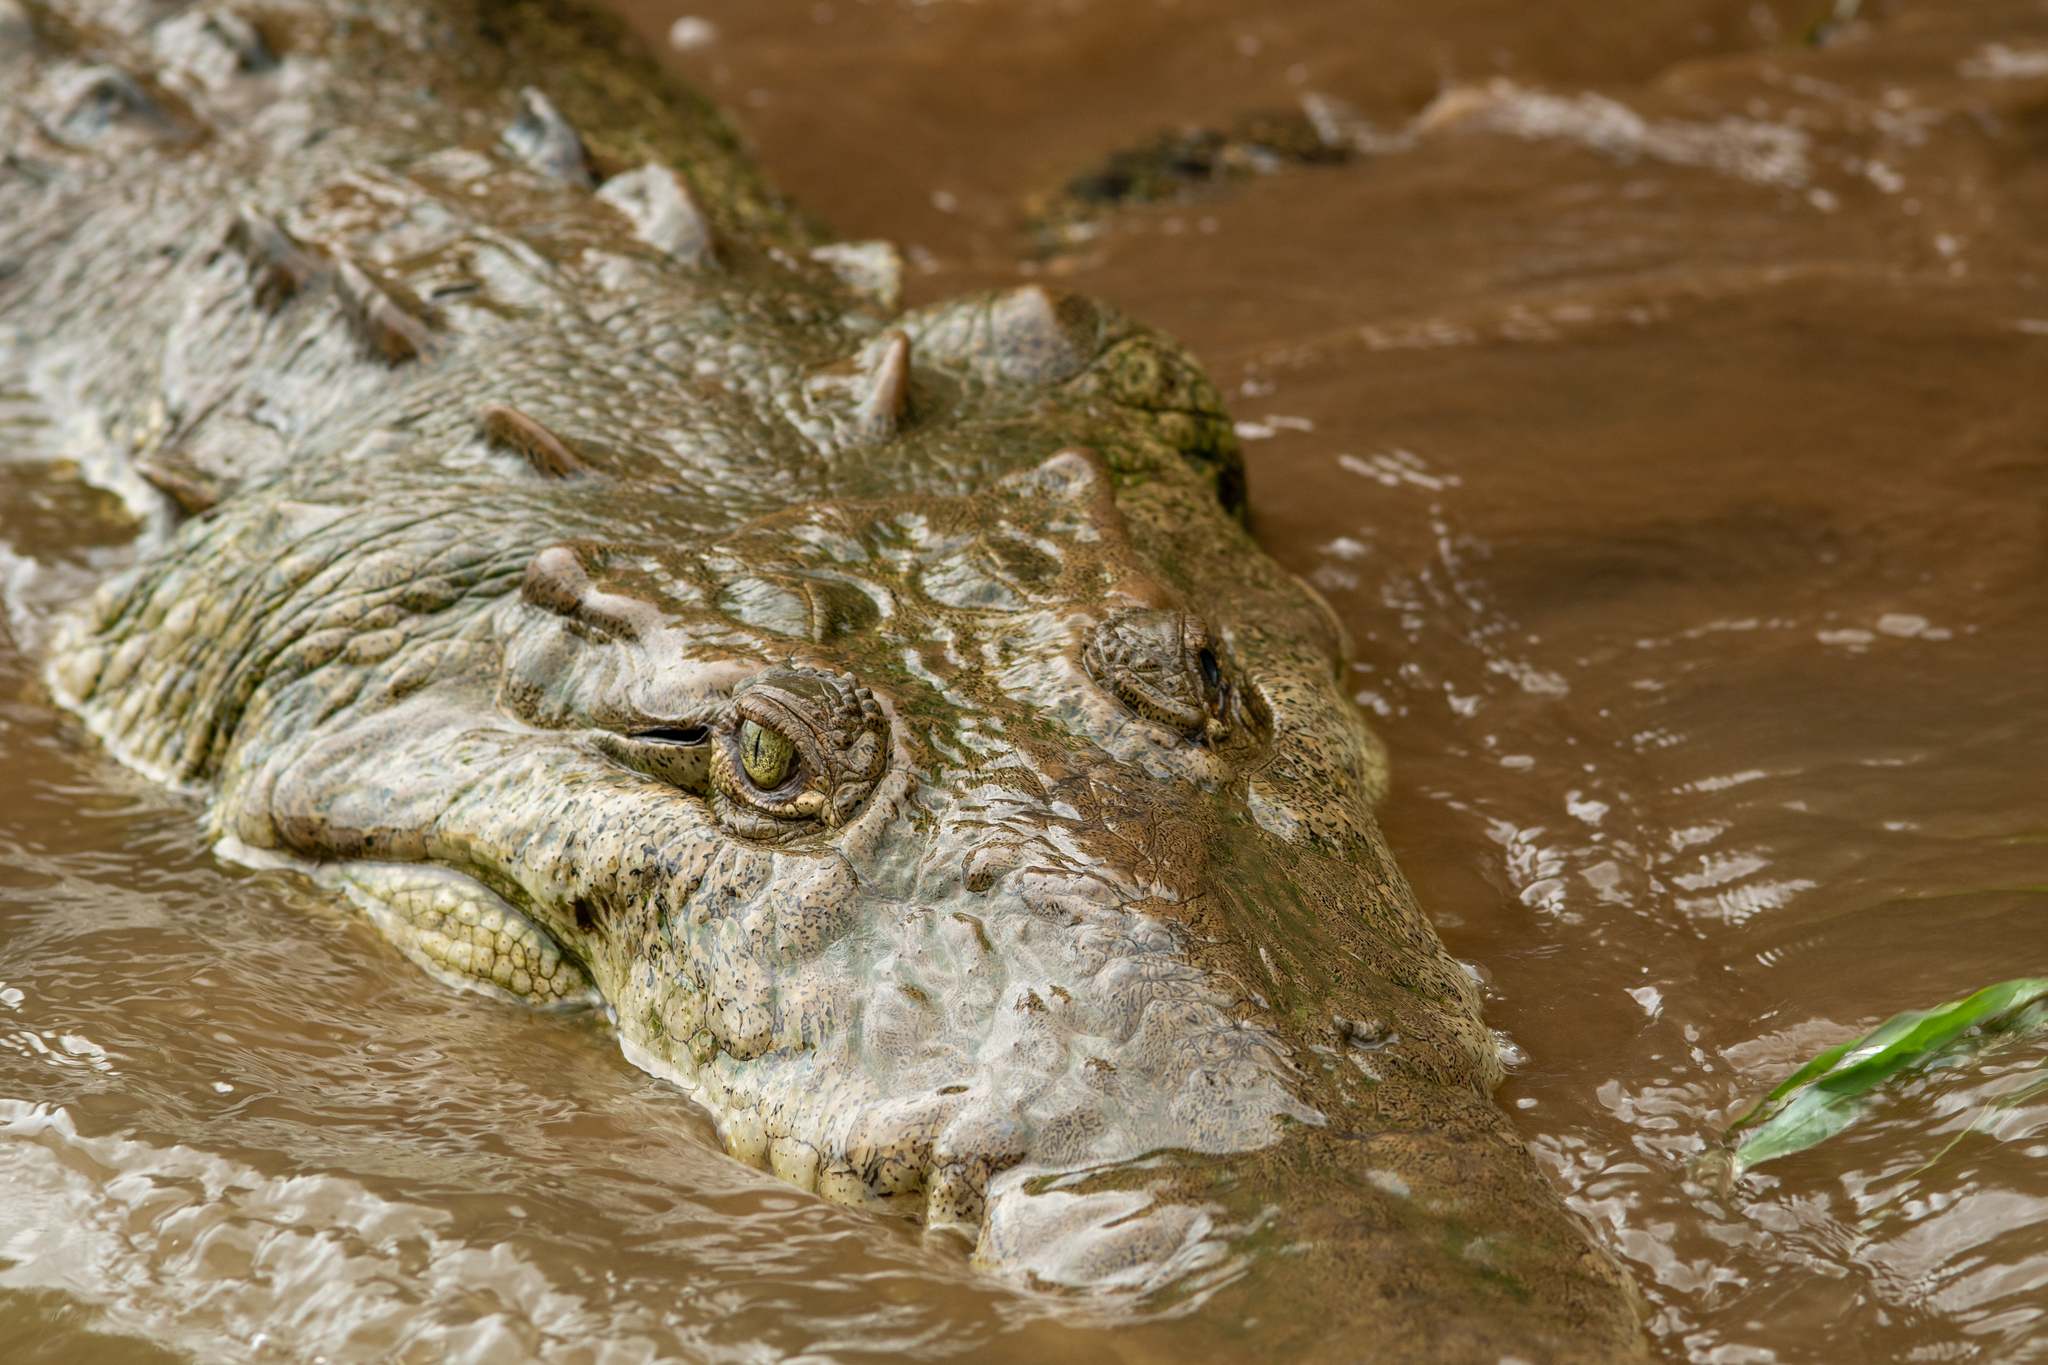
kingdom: Animalia
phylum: Chordata
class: Crocodylia
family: Crocodylidae
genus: Crocodylus
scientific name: Crocodylus acutus
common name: American crocodile
